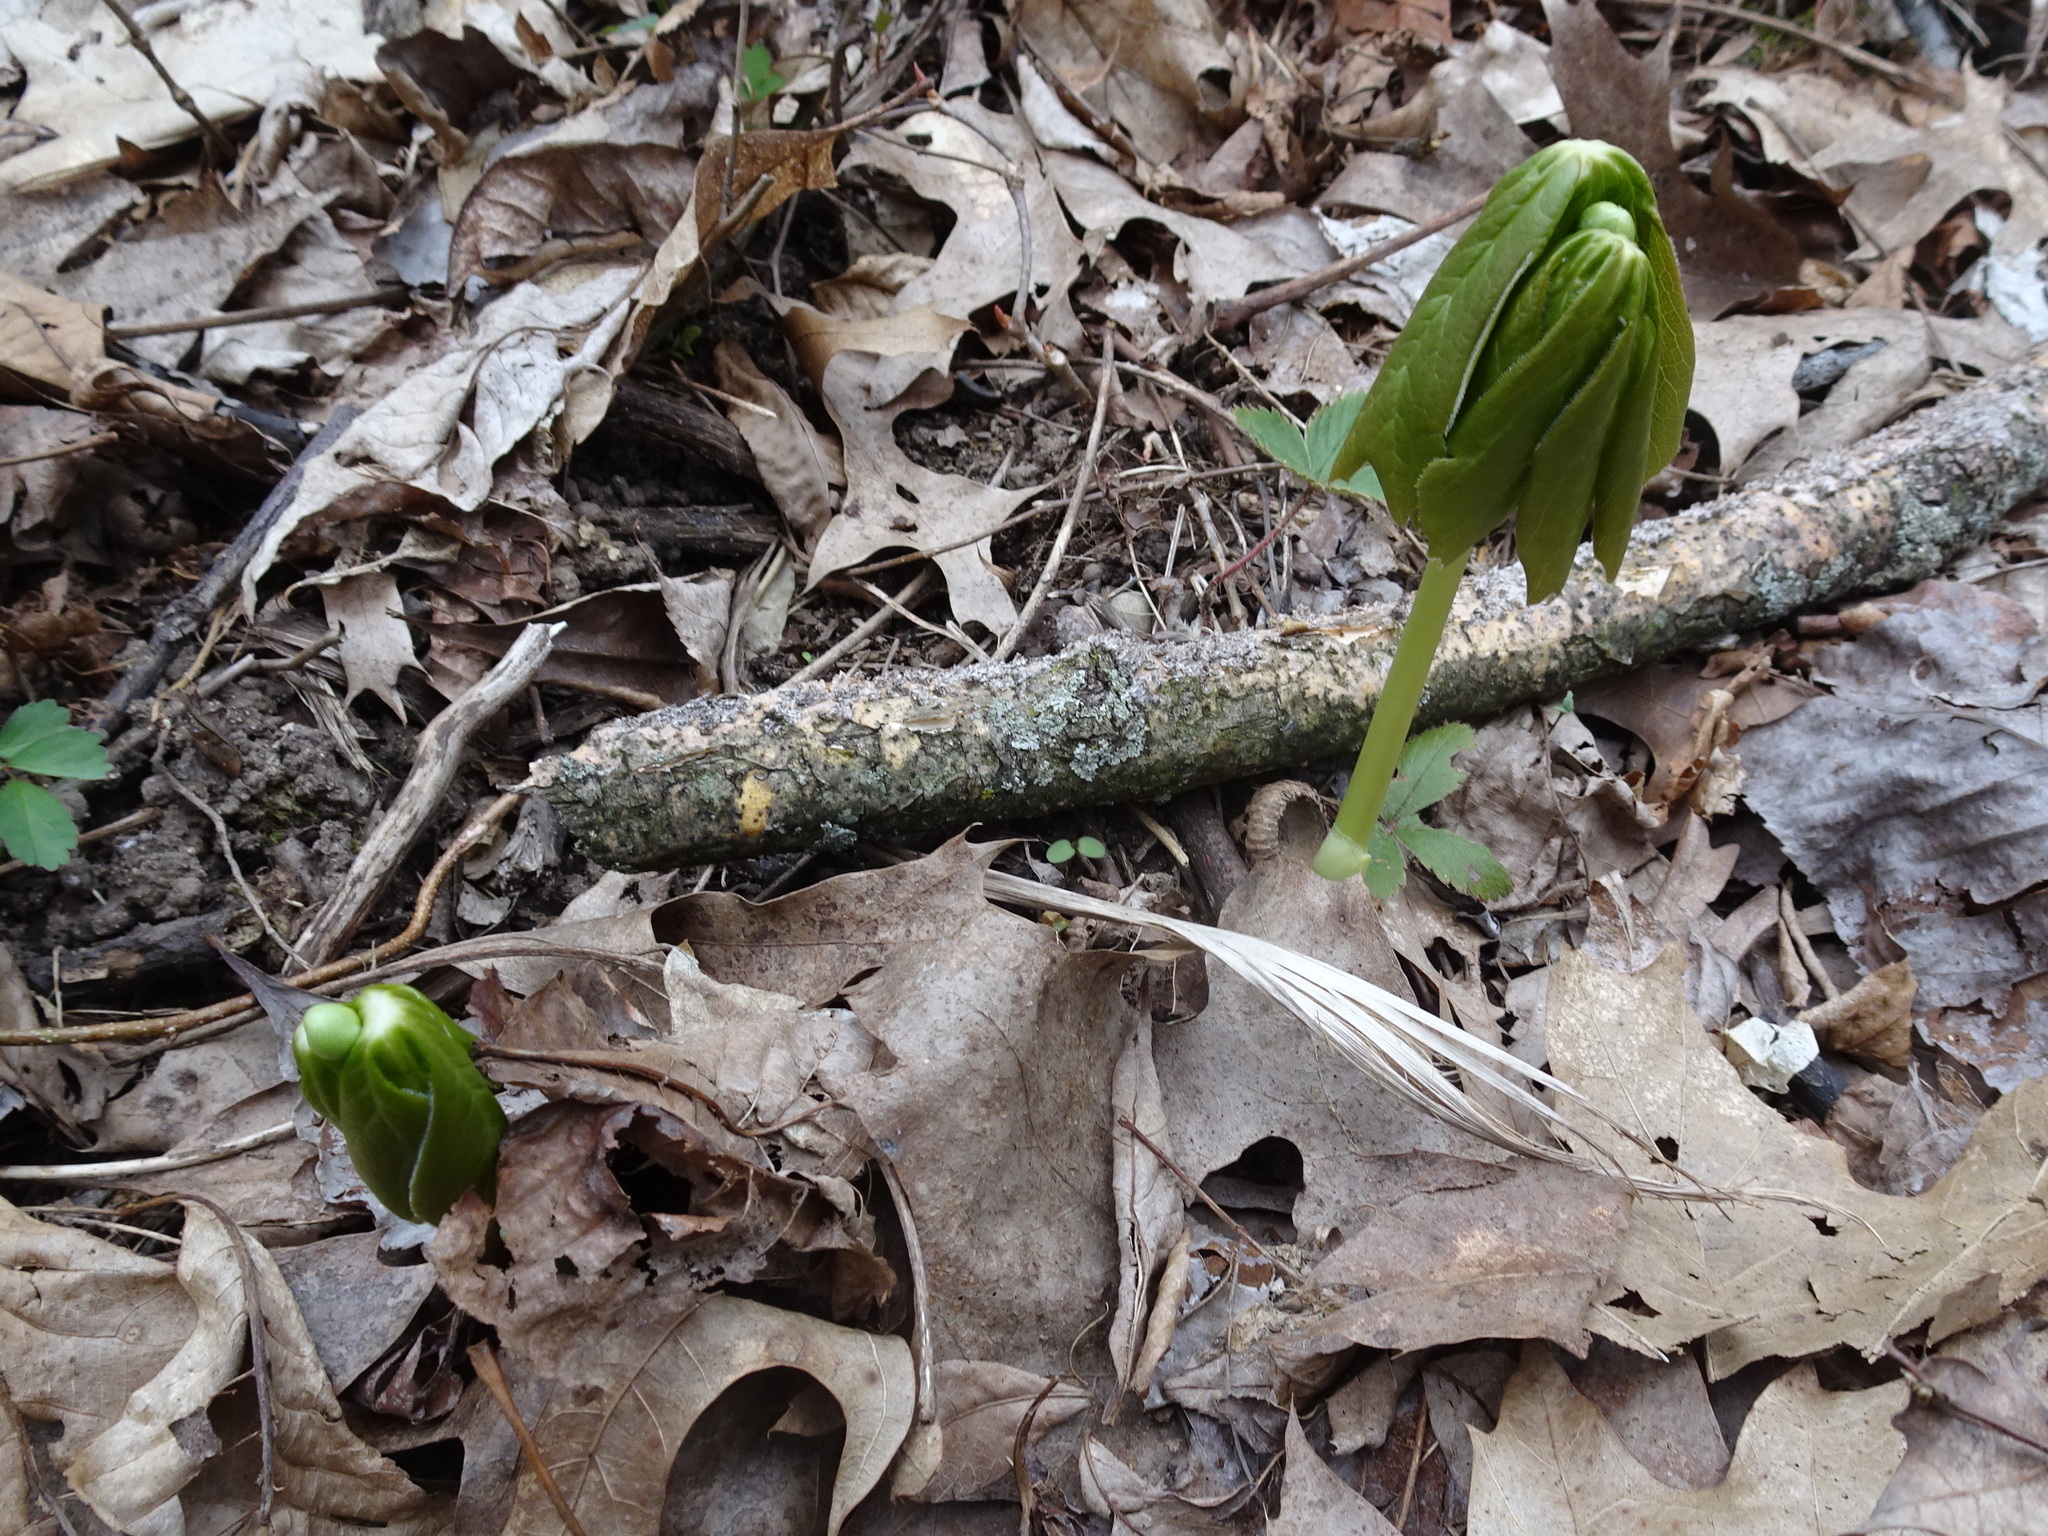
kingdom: Plantae
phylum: Tracheophyta
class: Magnoliopsida
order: Ranunculales
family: Berberidaceae
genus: Podophyllum
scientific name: Podophyllum peltatum
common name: Wild mandrake
